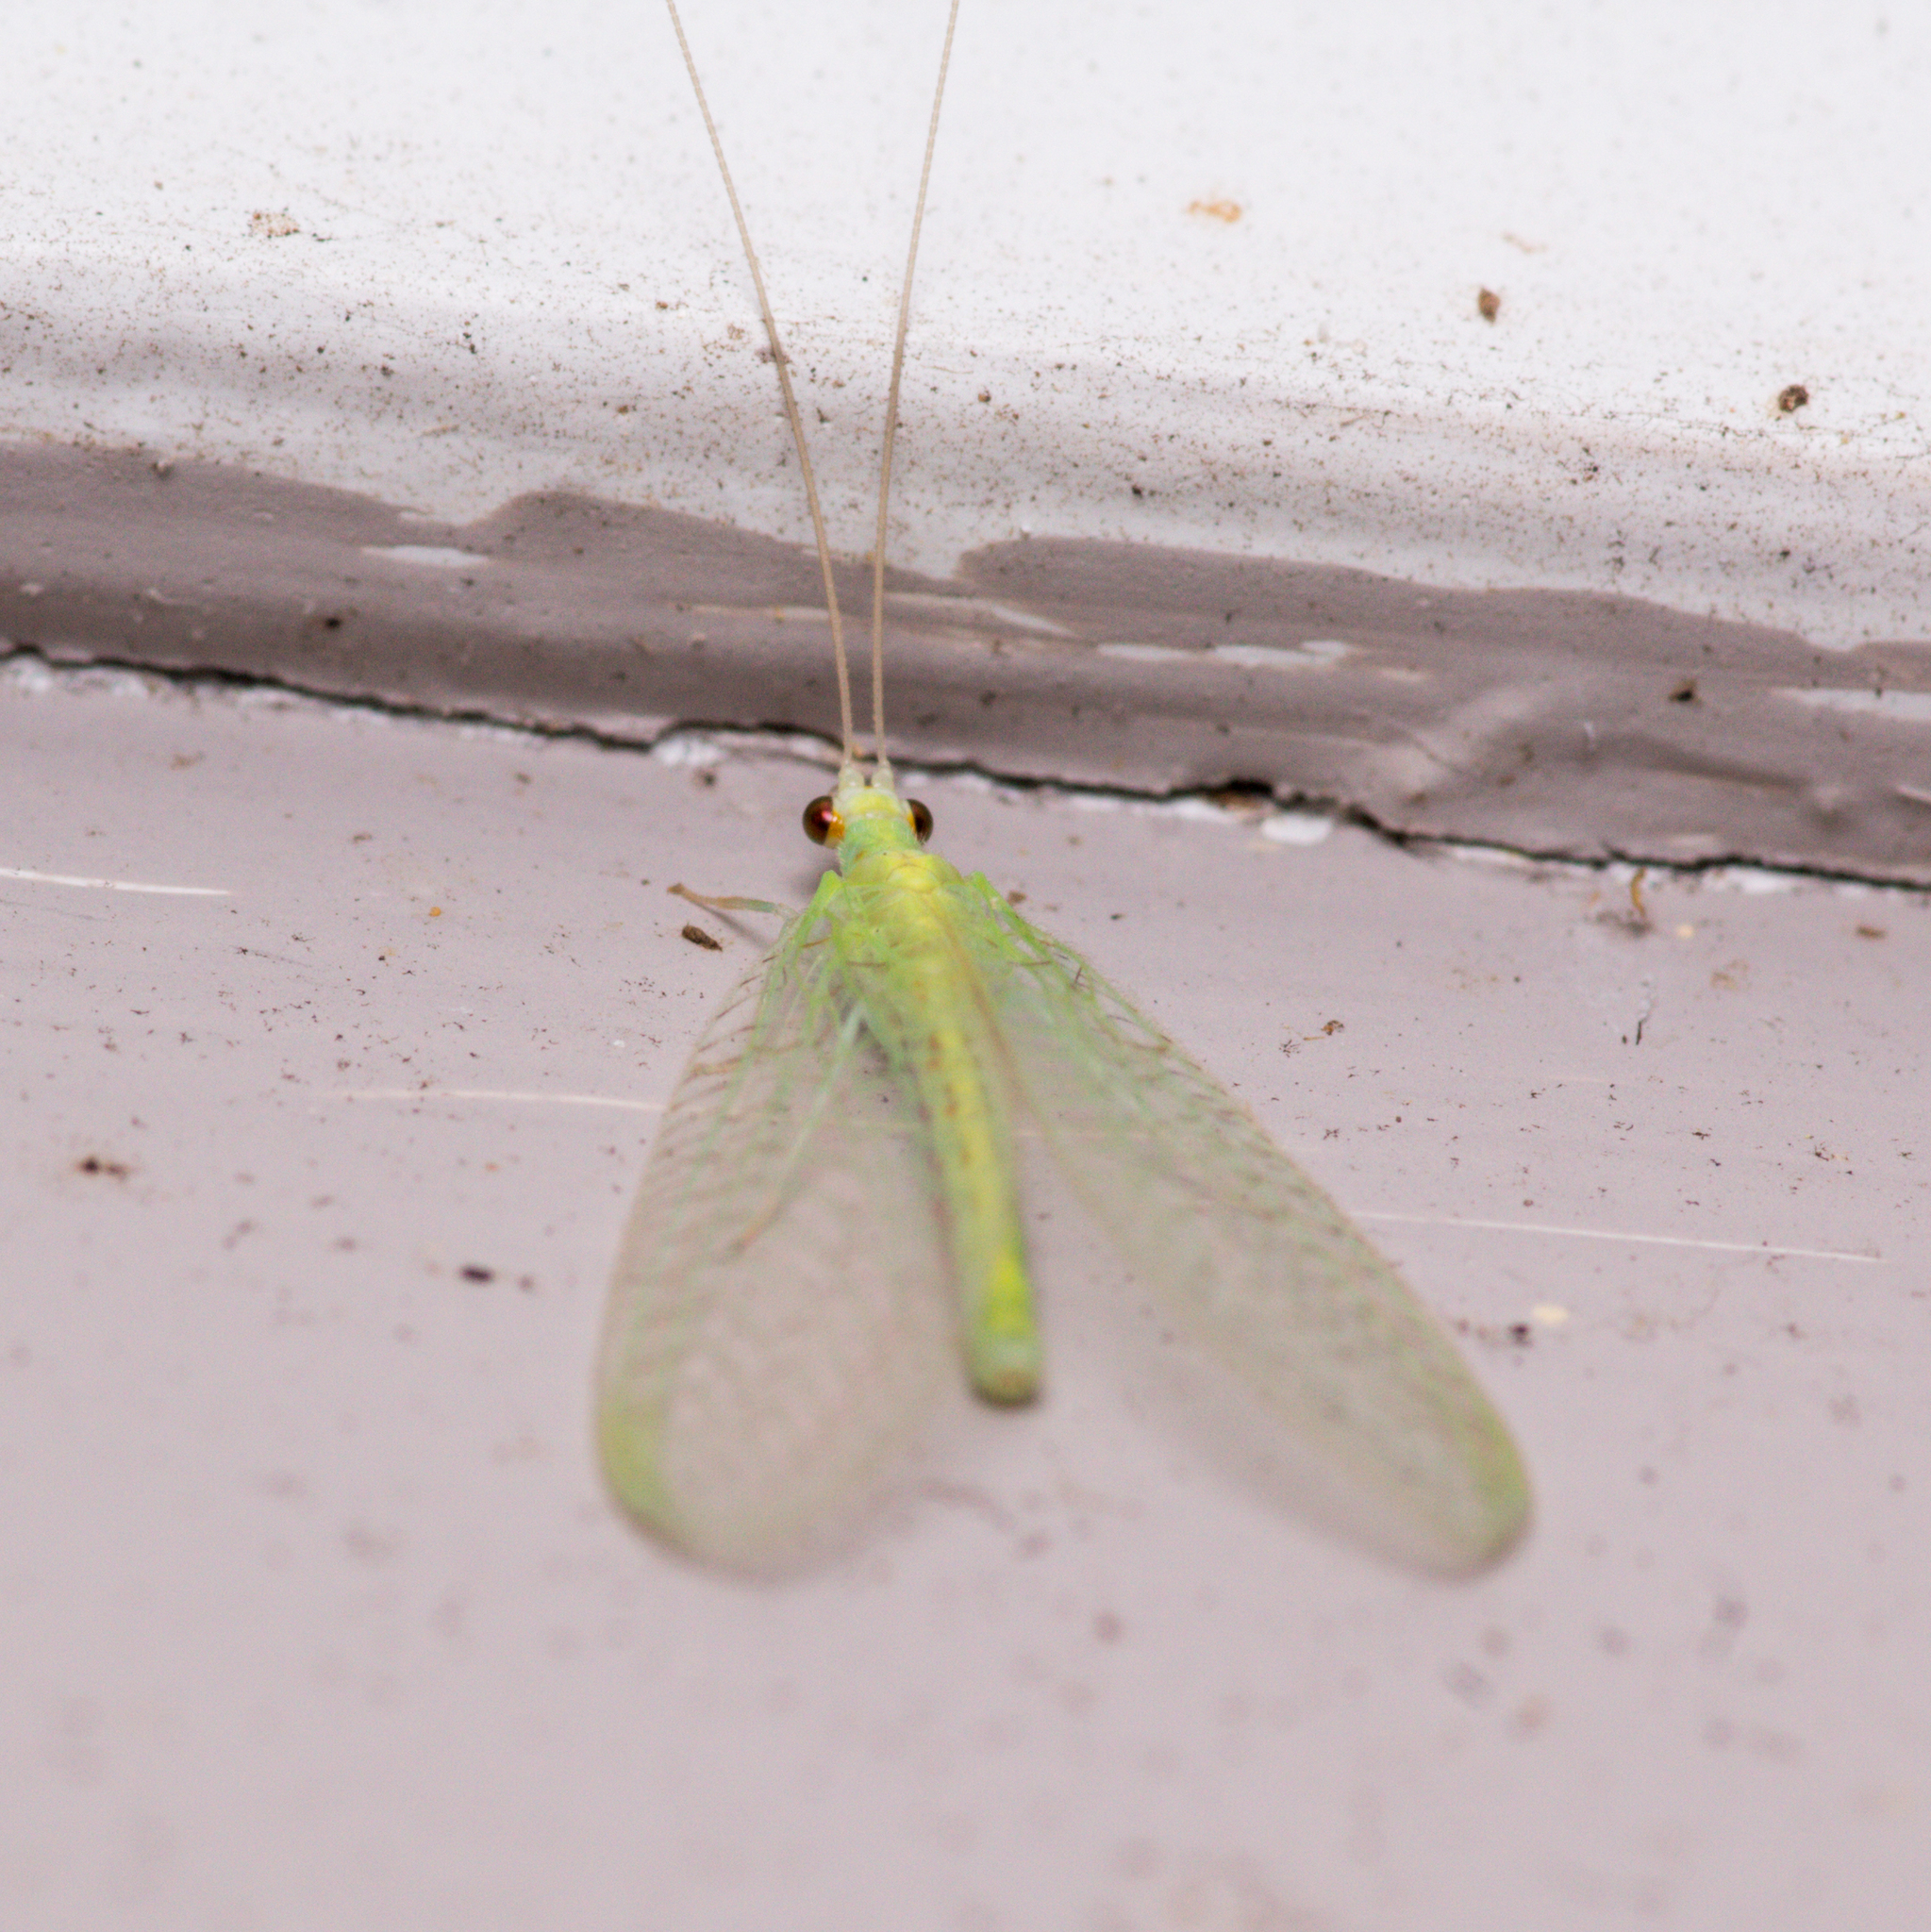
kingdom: Animalia
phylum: Arthropoda
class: Insecta
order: Neuroptera
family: Chrysopidae
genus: Chrysopa
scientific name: Chrysopa quadripunctata
